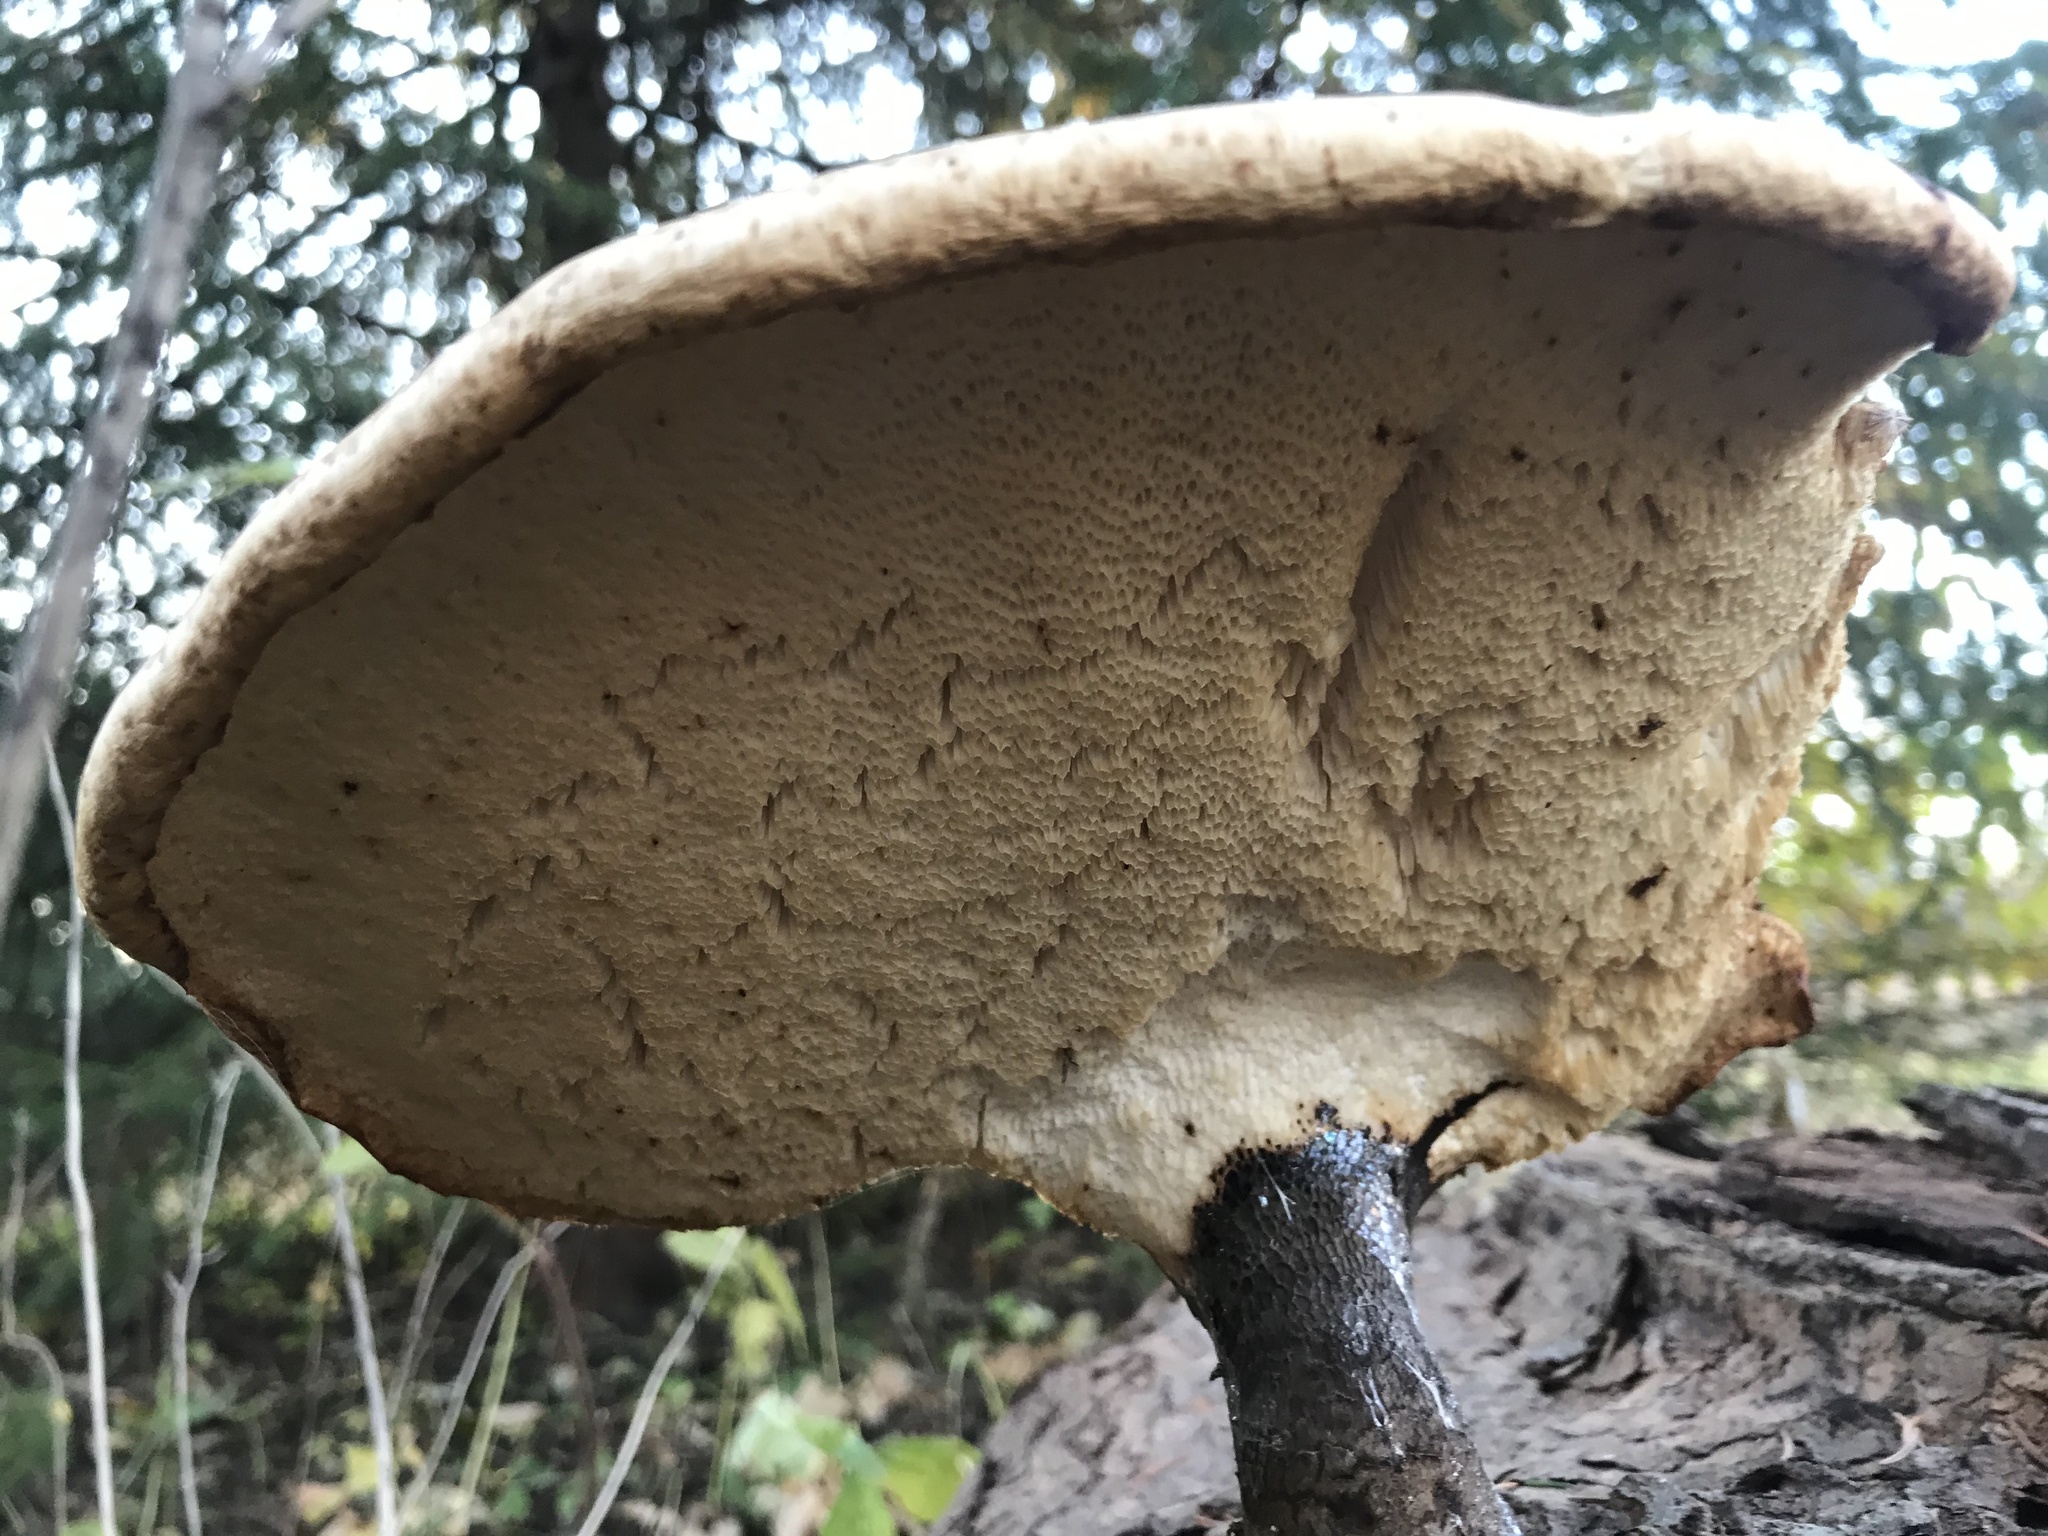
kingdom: Fungi
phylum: Basidiomycota
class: Agaricomycetes
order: Polyporales
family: Polyporaceae
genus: Cerioporus
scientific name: Cerioporus squamosus
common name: Dryad's saddle
